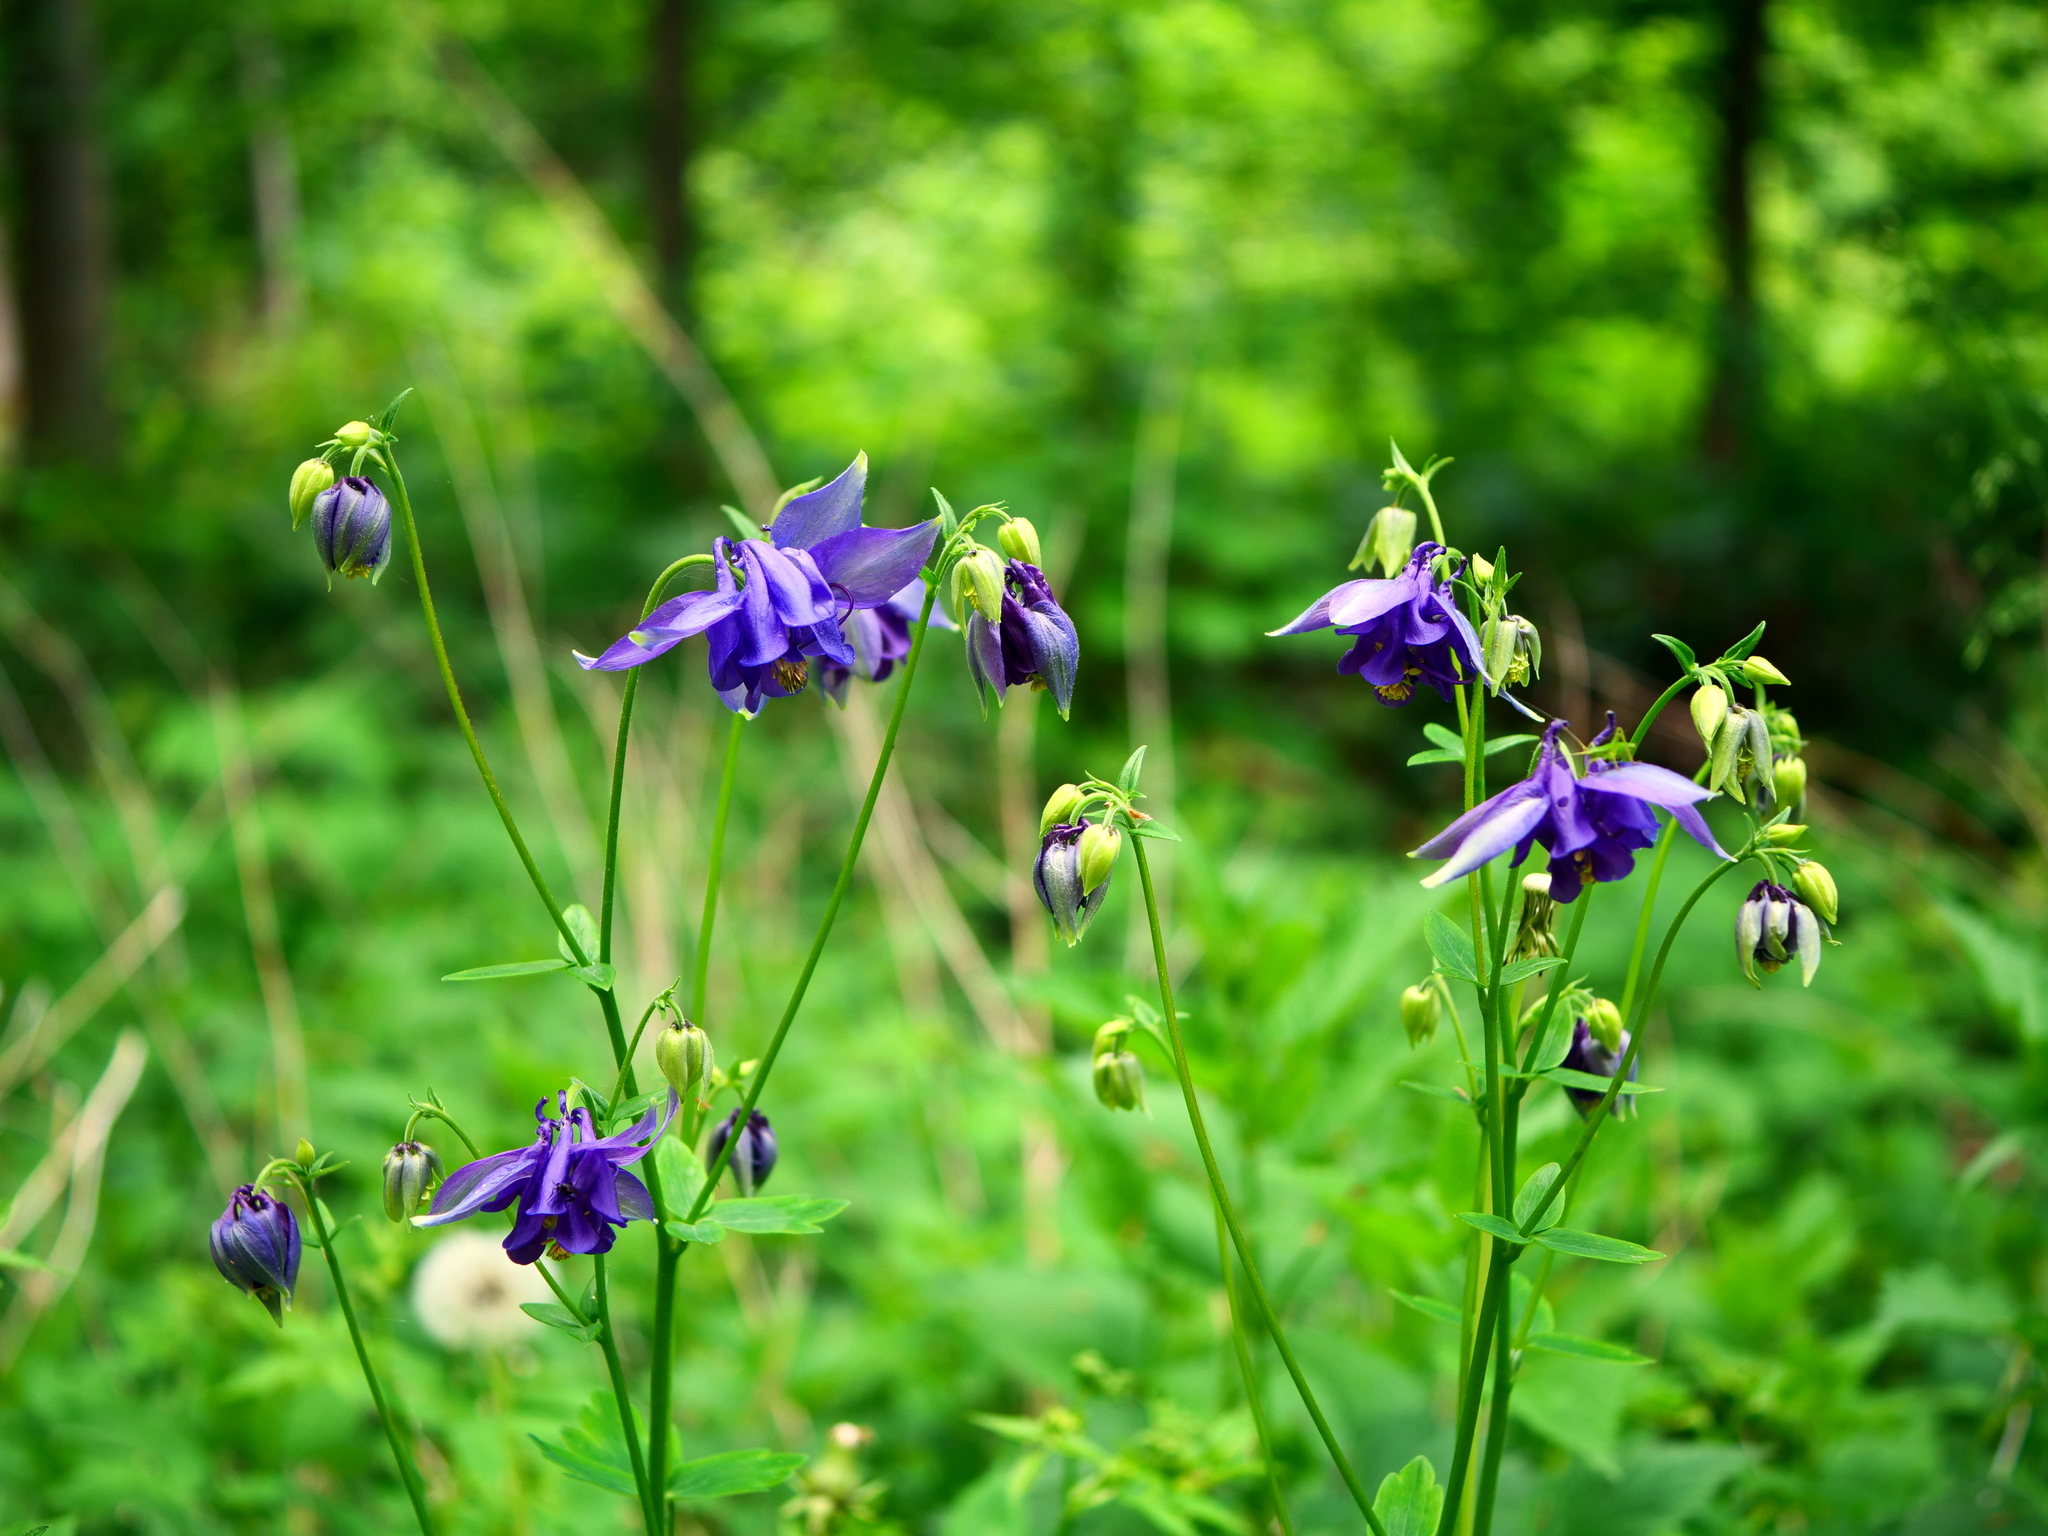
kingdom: Plantae
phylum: Tracheophyta
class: Magnoliopsida
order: Ranunculales
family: Ranunculaceae
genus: Aquilegia
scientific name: Aquilegia vulgaris
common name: Columbine
